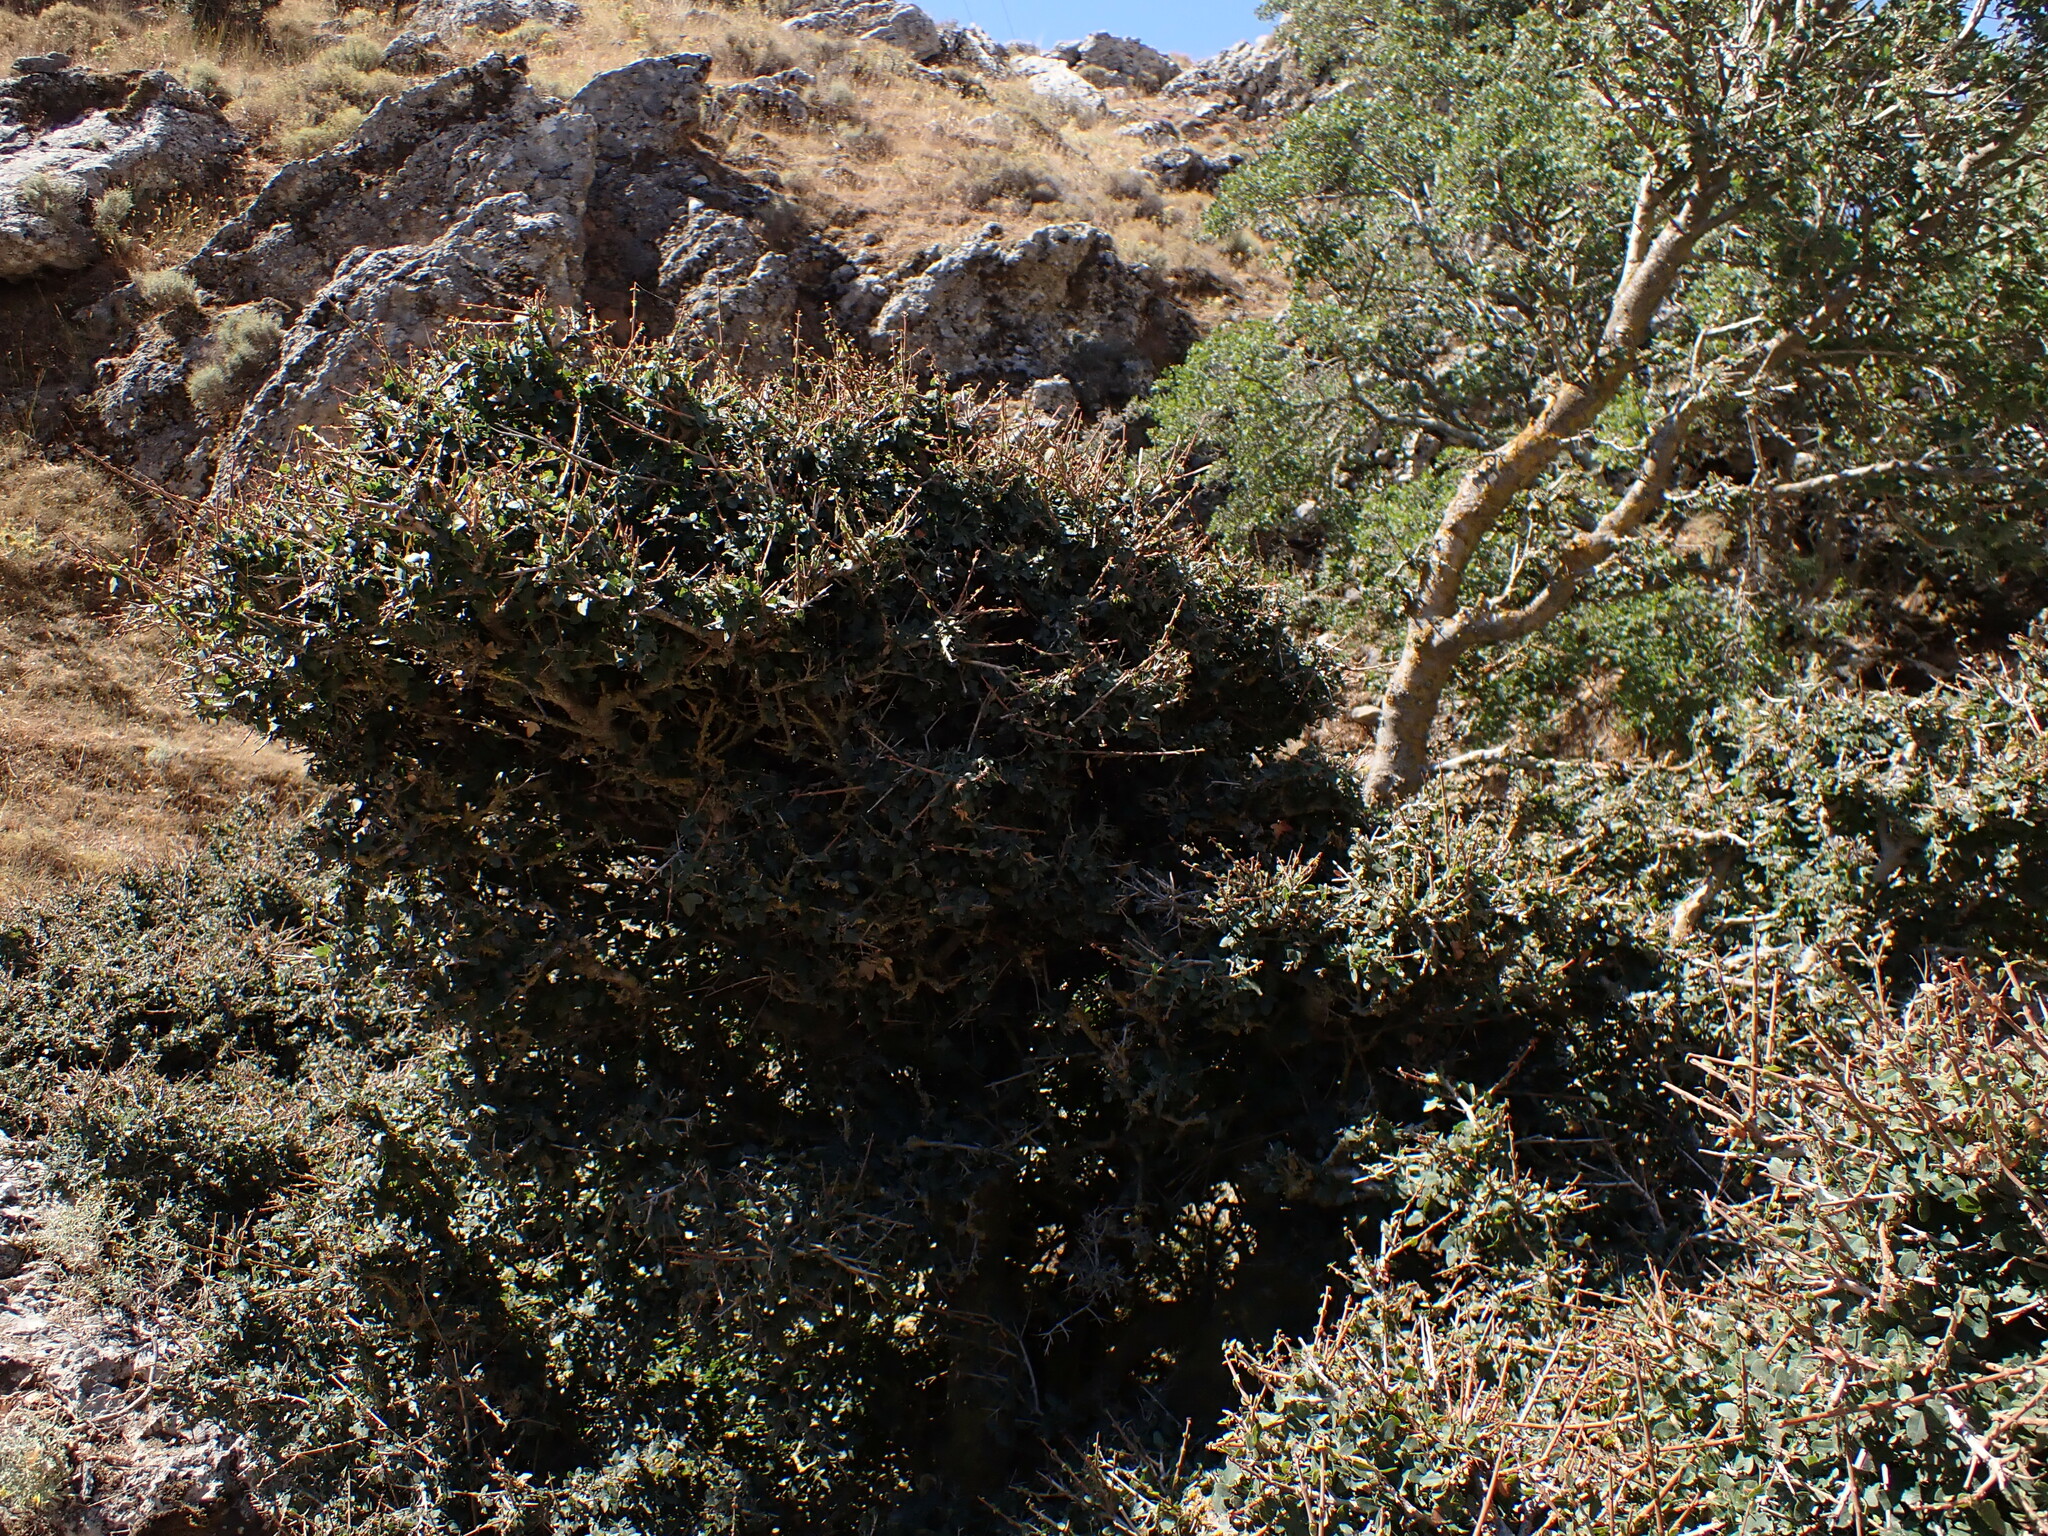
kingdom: Plantae
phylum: Tracheophyta
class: Magnoliopsida
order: Sapindales
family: Sapindaceae
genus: Acer
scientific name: Acer sempervirens
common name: Cretan maple
